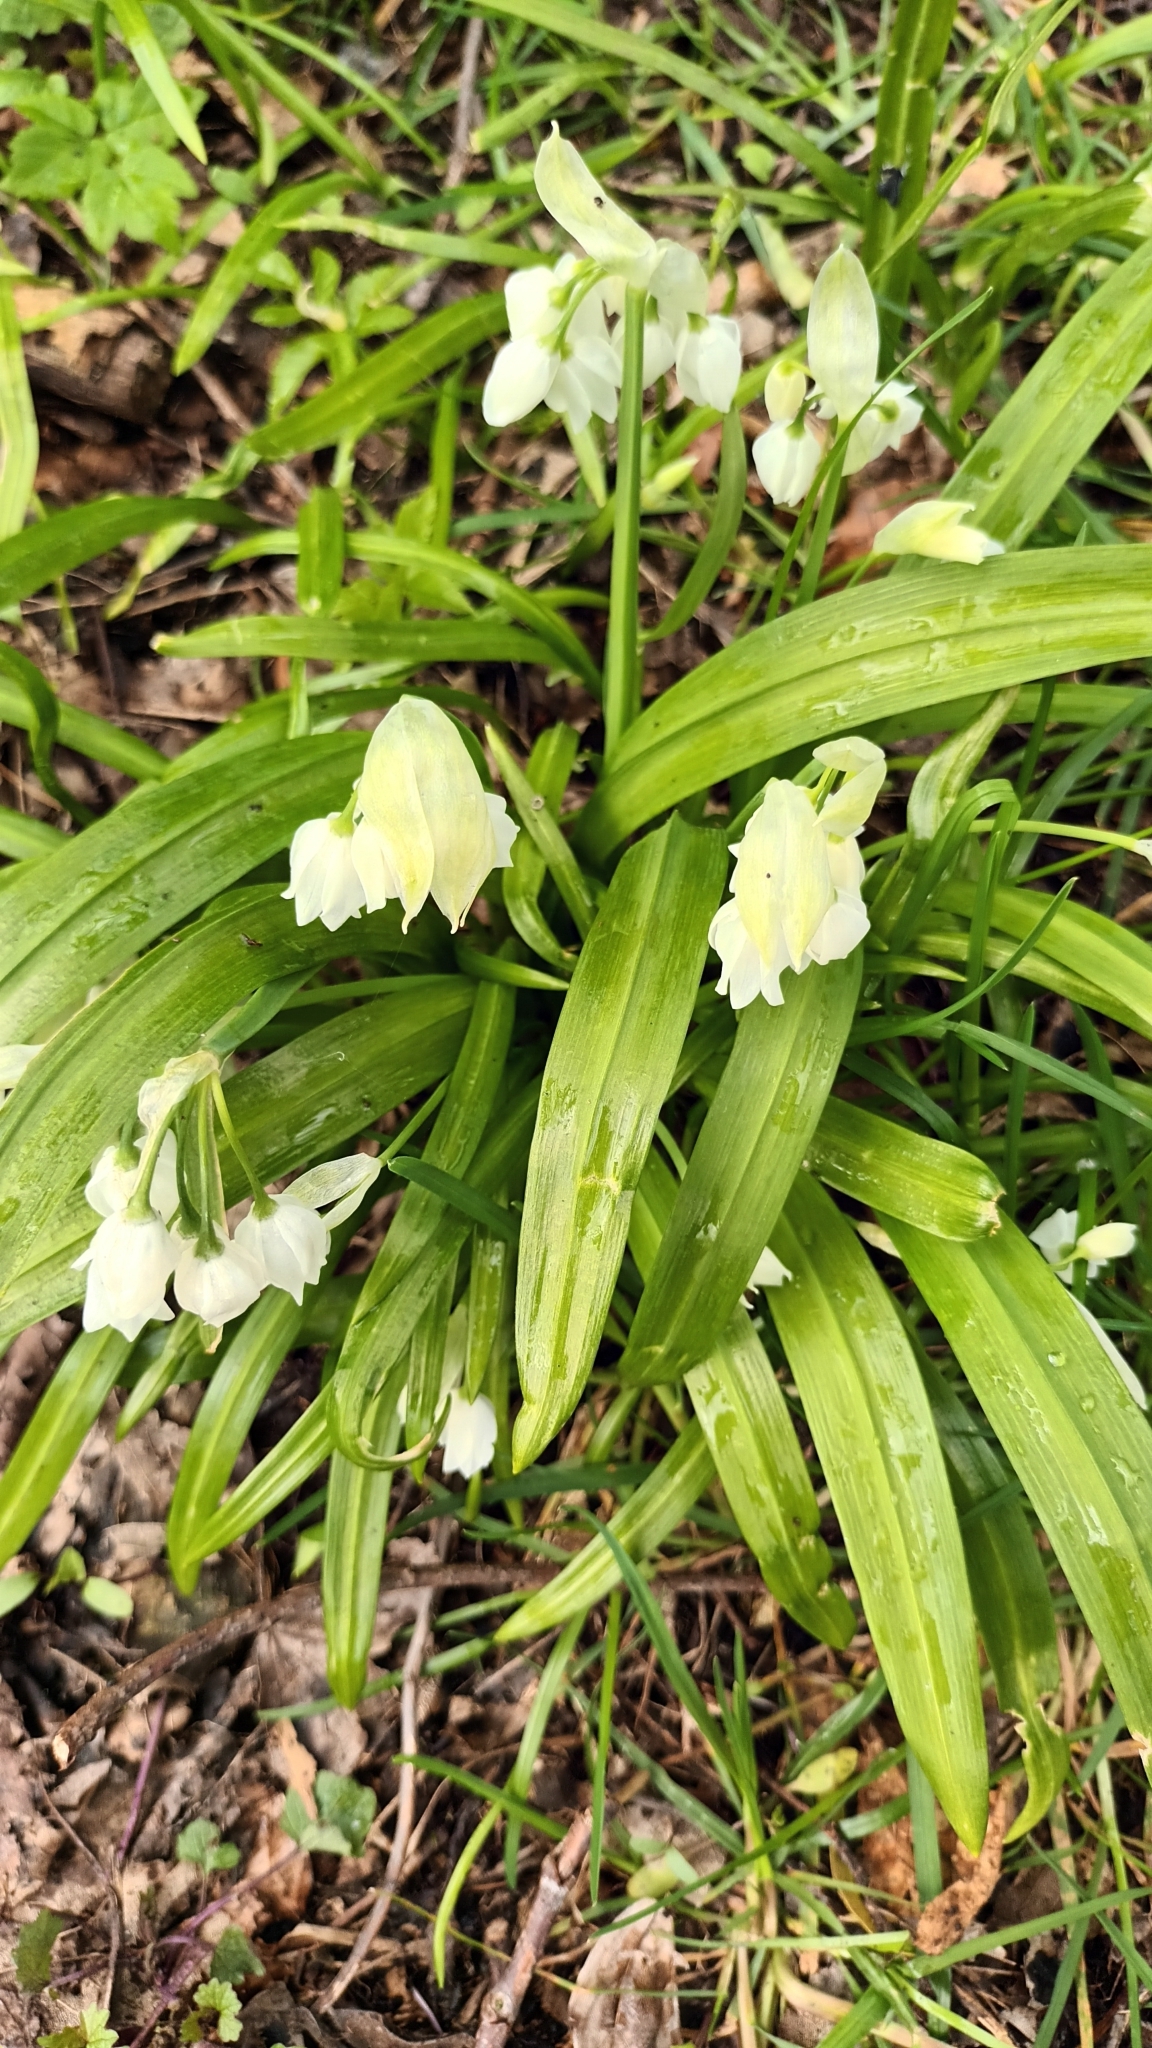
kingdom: Plantae
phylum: Tracheophyta
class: Liliopsida
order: Asparagales
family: Amaryllidaceae
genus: Allium
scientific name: Allium paradoxum
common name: Few-flowered garlic
